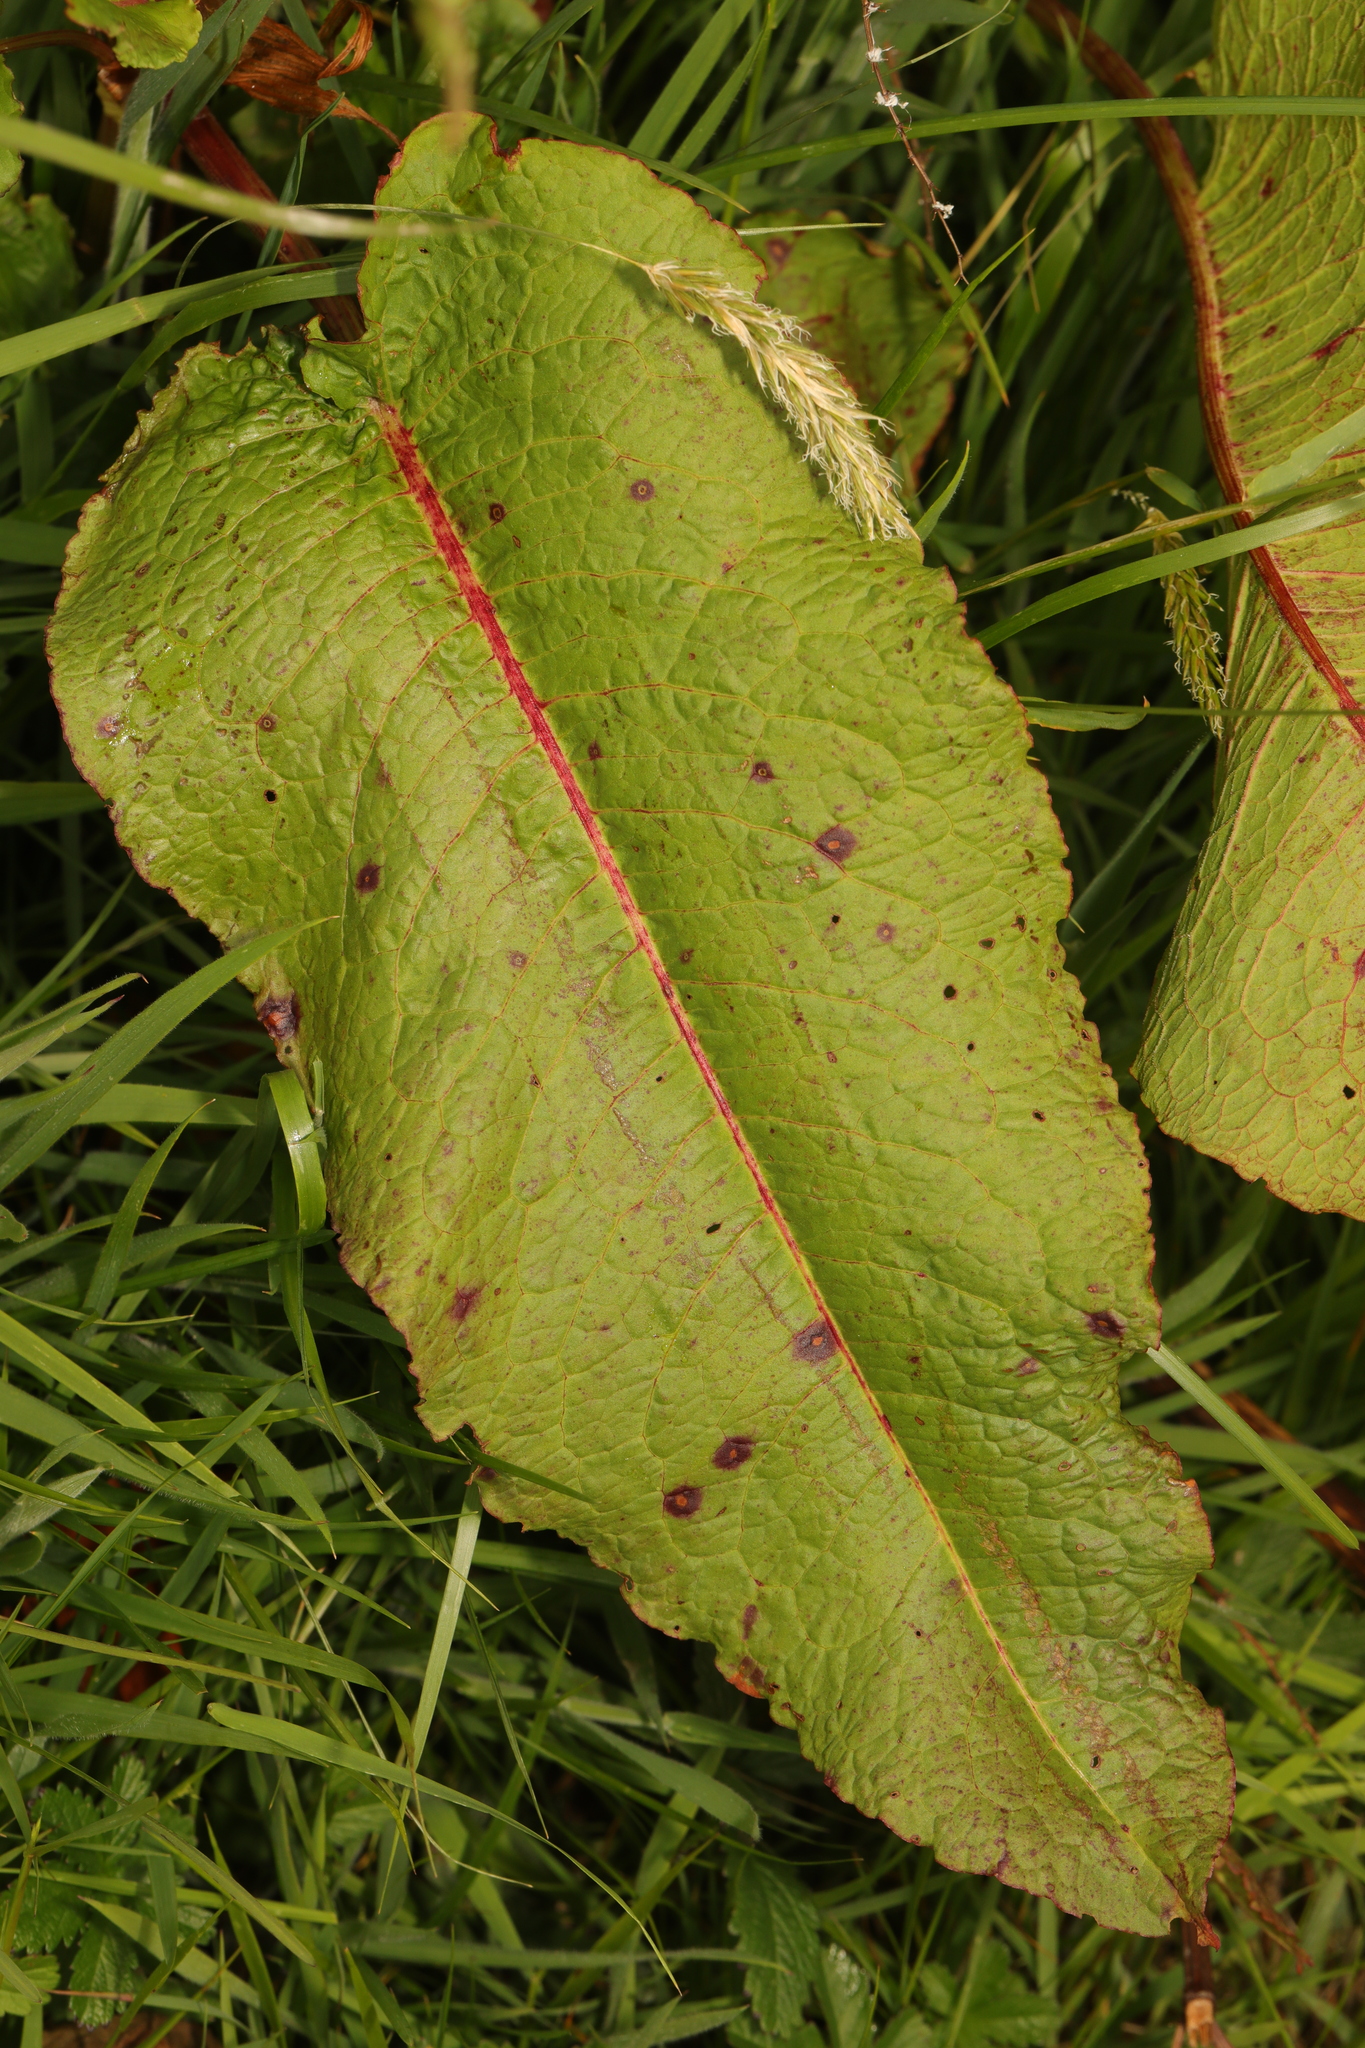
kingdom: Fungi
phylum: Ascomycota
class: Dothideomycetes
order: Mycosphaerellales
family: Mycosphaerellaceae
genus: Ramularia
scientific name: Ramularia rubella
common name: Red dock spot
